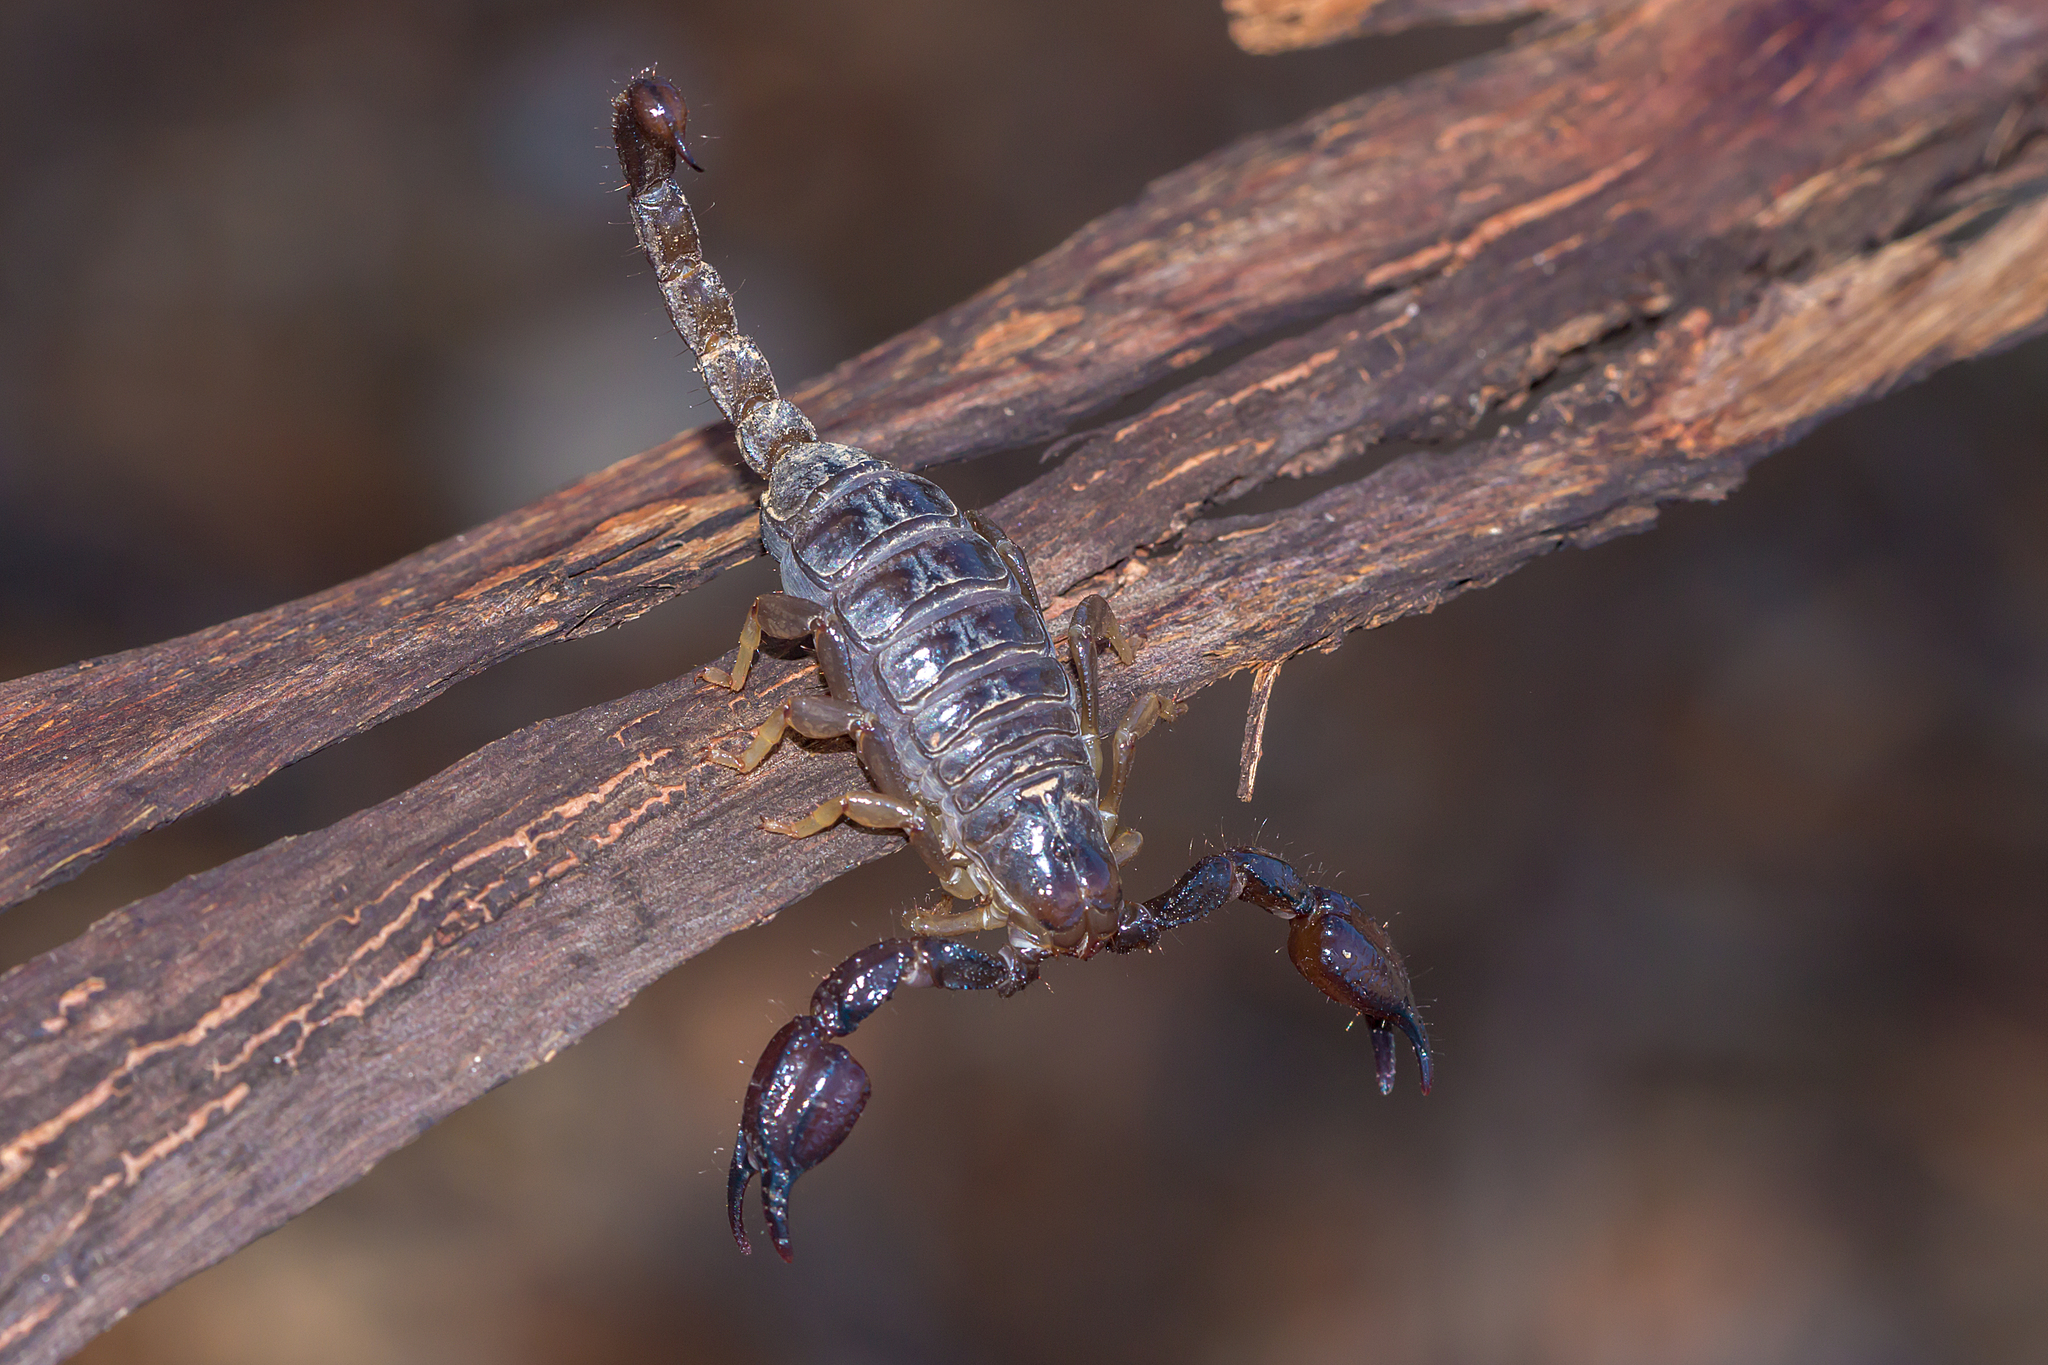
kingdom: Animalia
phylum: Arthropoda
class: Arachnida
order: Scorpiones
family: Scorpionidae
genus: Urodacus
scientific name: Urodacus manicatus
